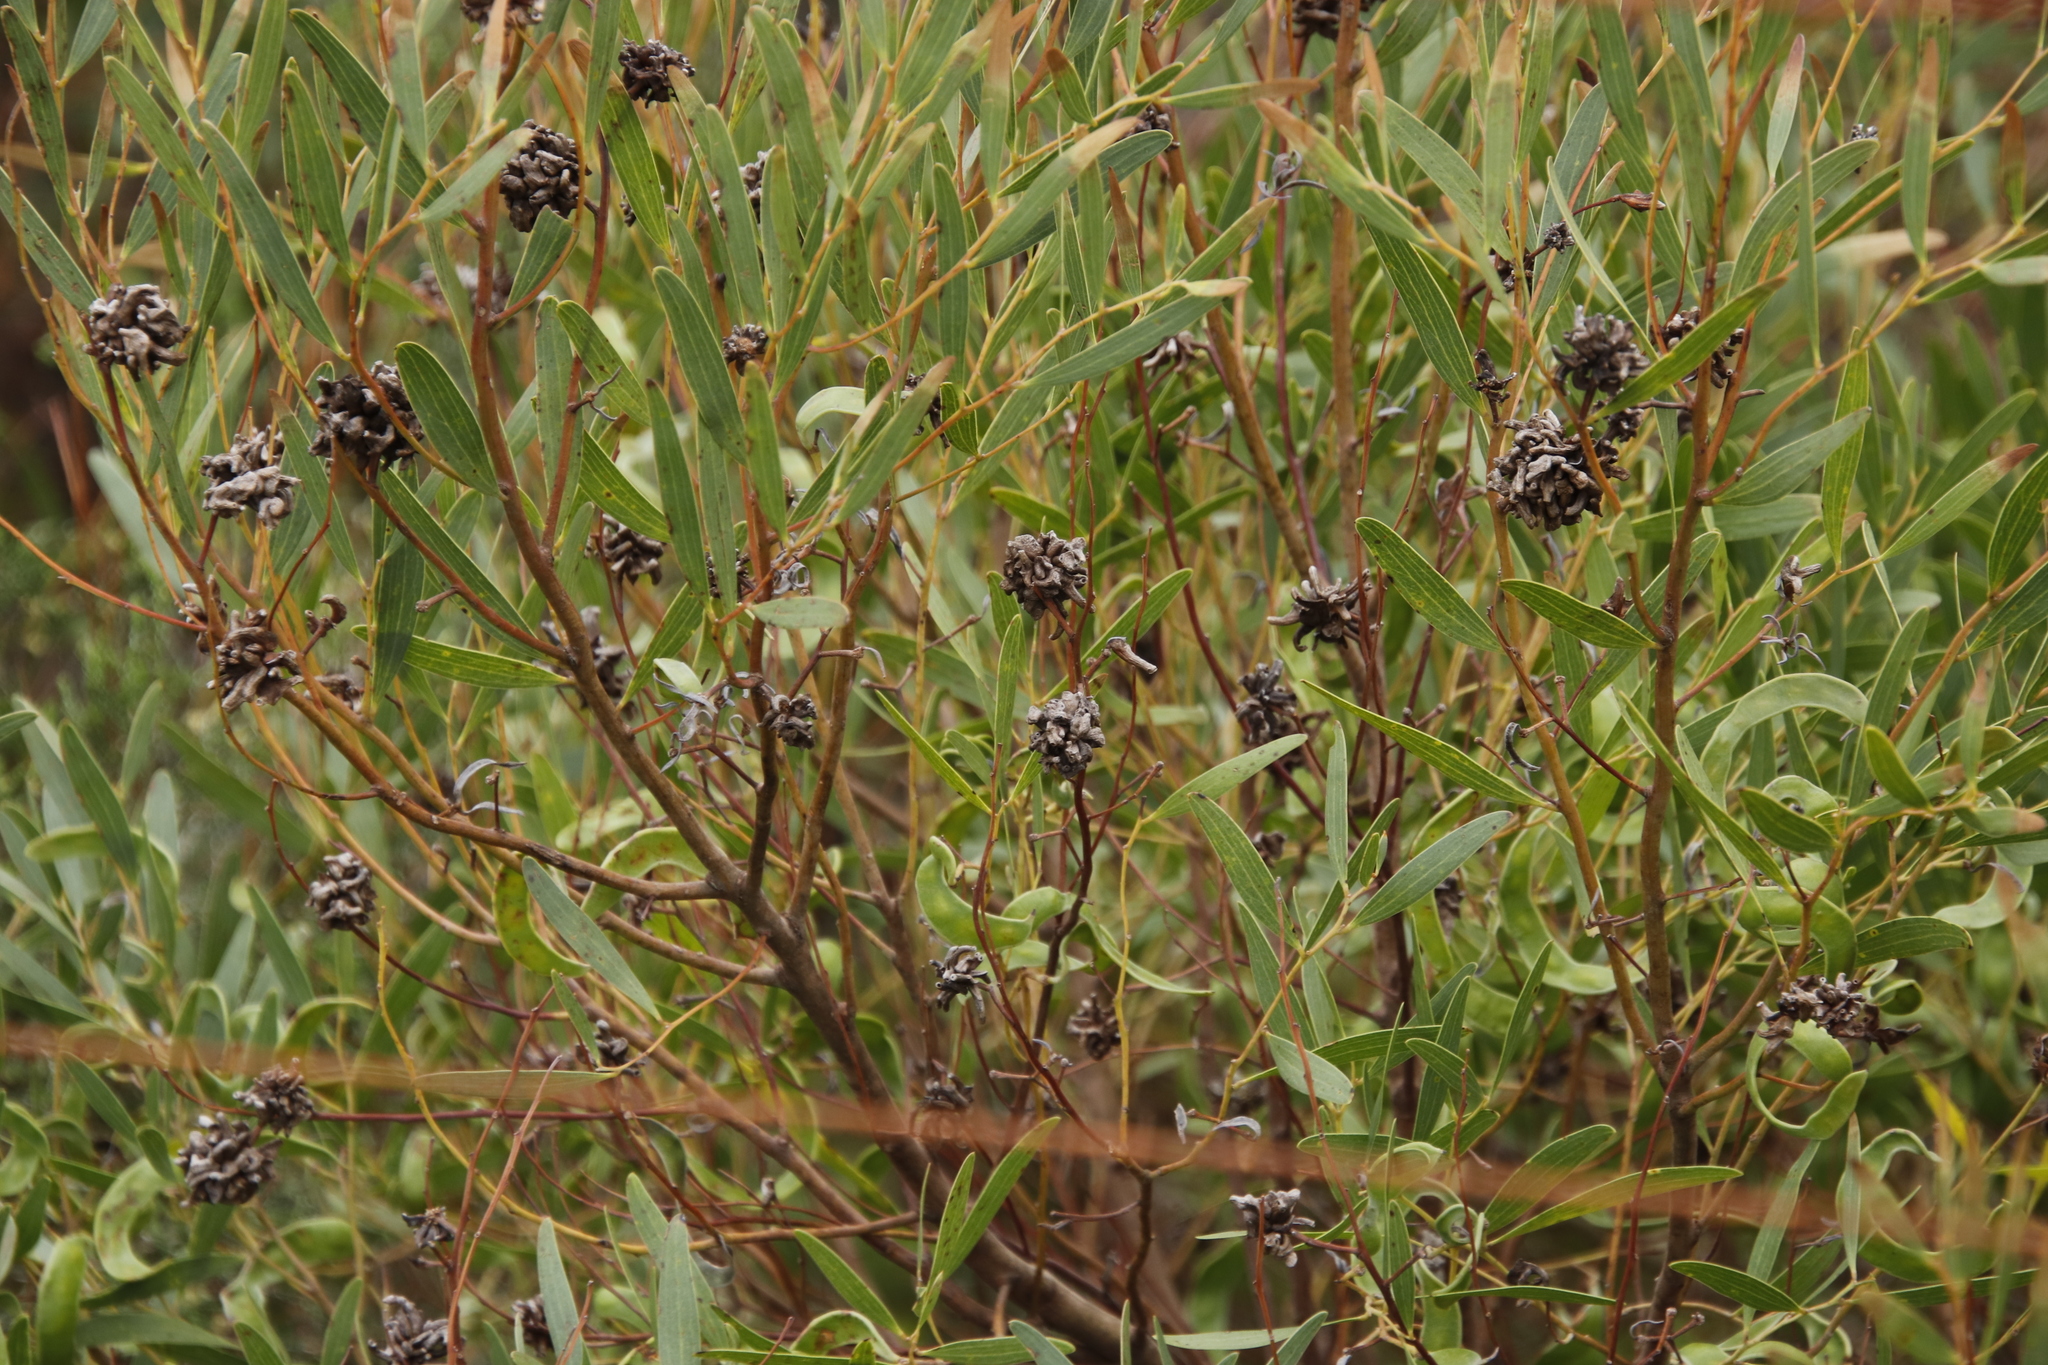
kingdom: Plantae
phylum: Tracheophyta
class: Magnoliopsida
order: Fabales
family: Fabaceae
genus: Acacia
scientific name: Acacia cyclops
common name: Coastal wattle
